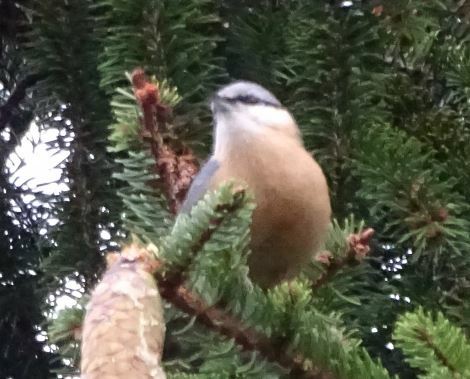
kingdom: Animalia
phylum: Chordata
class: Aves
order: Passeriformes
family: Sittidae
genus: Sitta
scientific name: Sitta europaea
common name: Eurasian nuthatch
